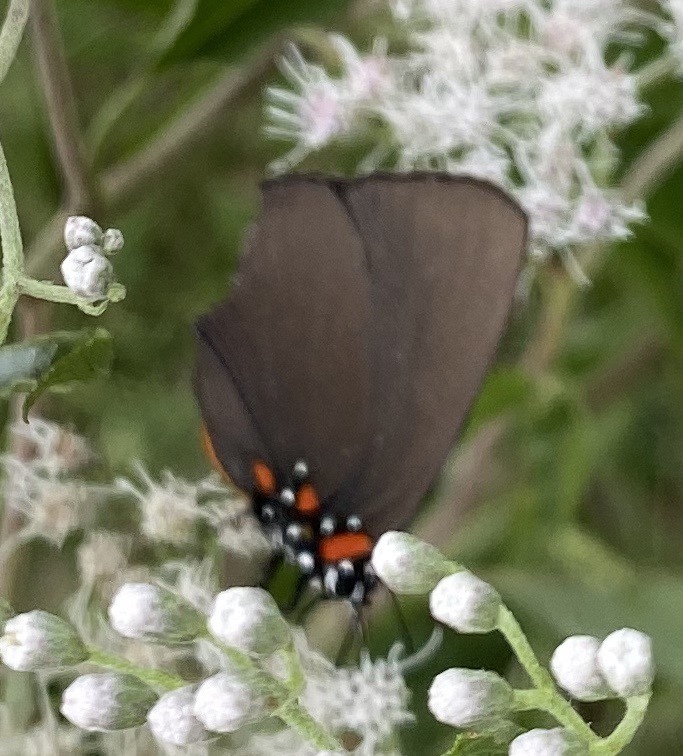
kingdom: Animalia
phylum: Arthropoda
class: Insecta
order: Lepidoptera
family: Lycaenidae
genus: Atlides
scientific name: Atlides halesus
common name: Great purple hairstreak
